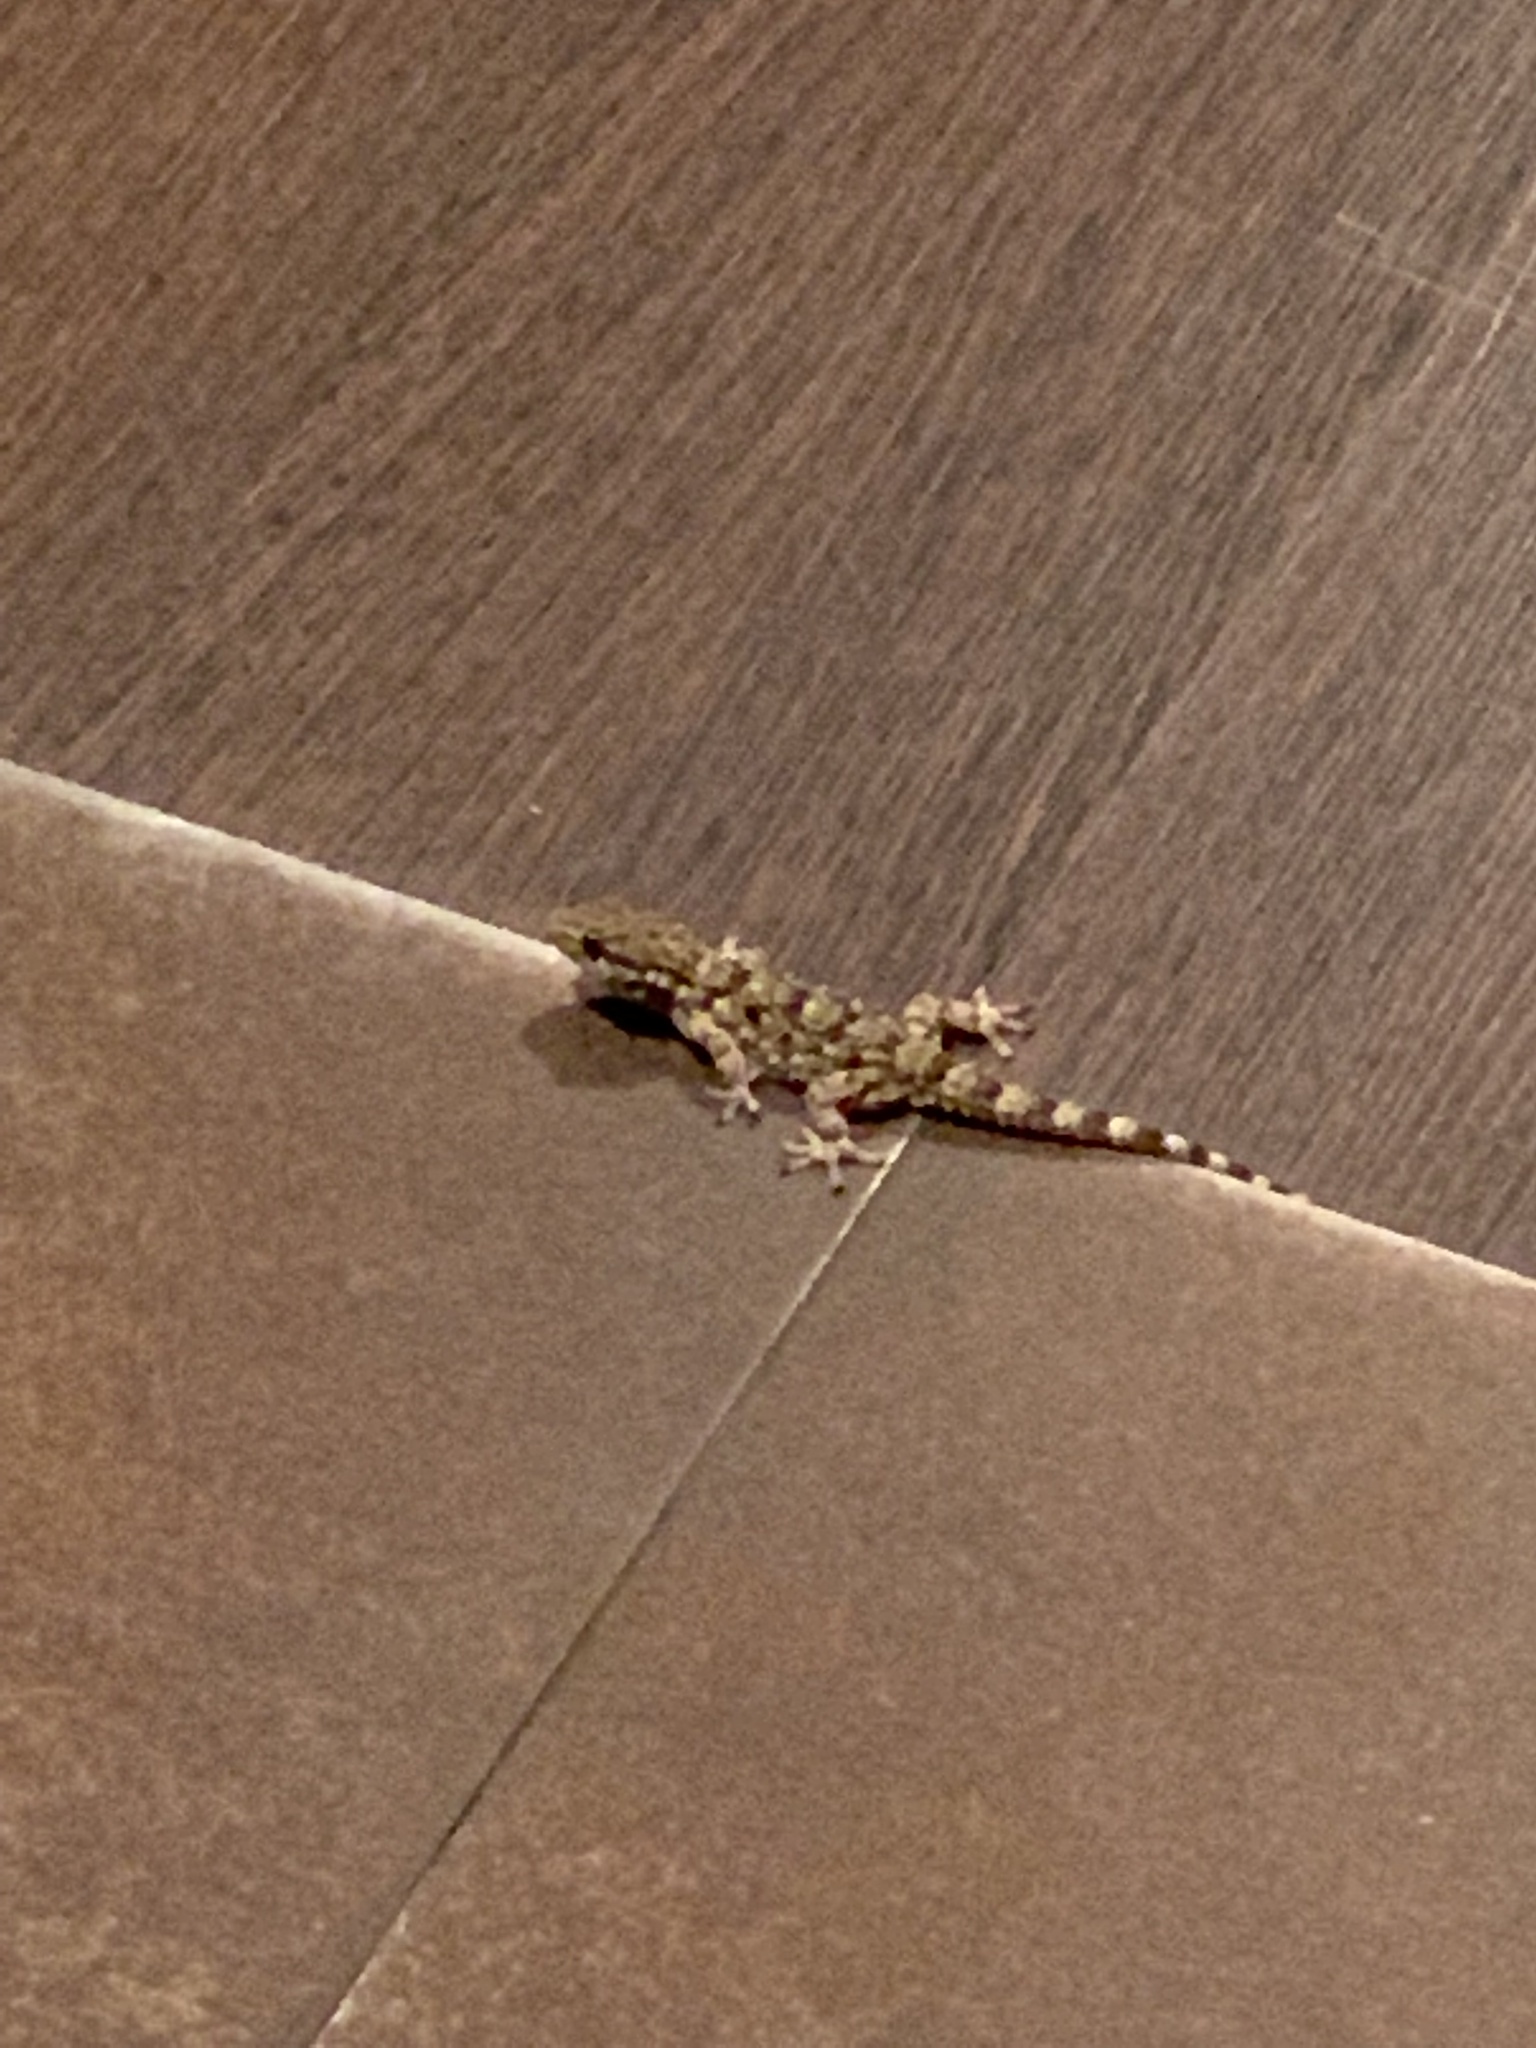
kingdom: Animalia
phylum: Chordata
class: Squamata
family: Phyllodactylidae
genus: Tarentola
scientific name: Tarentola mauritanica
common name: Moorish gecko
